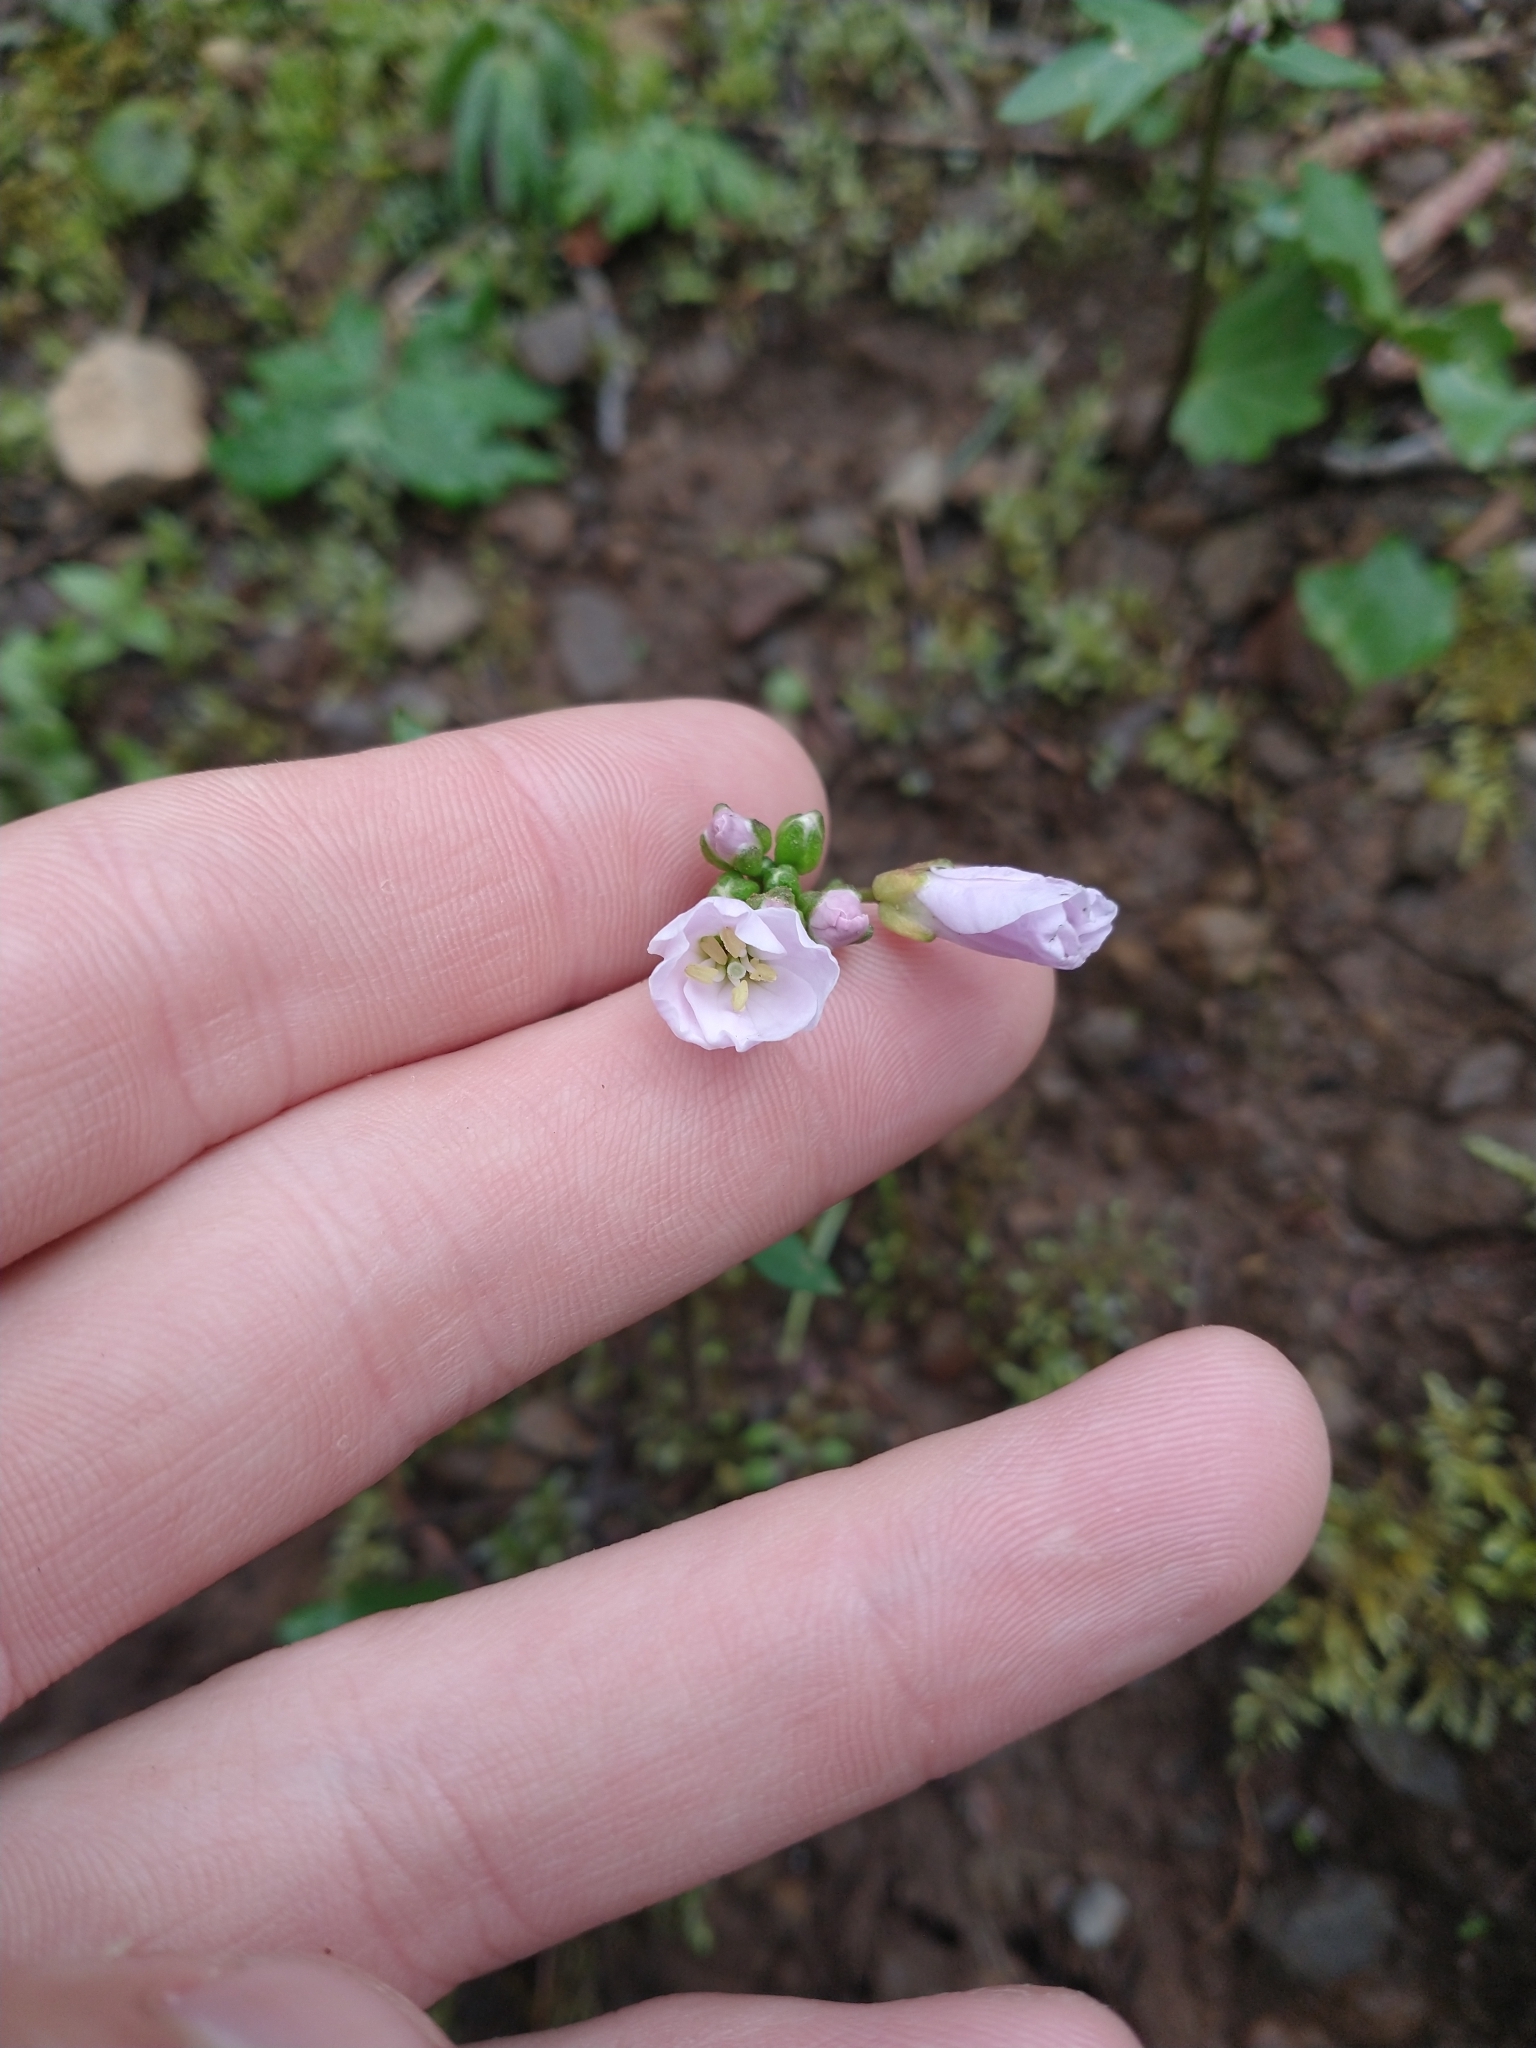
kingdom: Plantae
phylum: Tracheophyta
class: Magnoliopsida
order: Brassicales
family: Brassicaceae
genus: Cardamine
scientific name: Cardamine nuttallii
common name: Nuttall's toothwort
